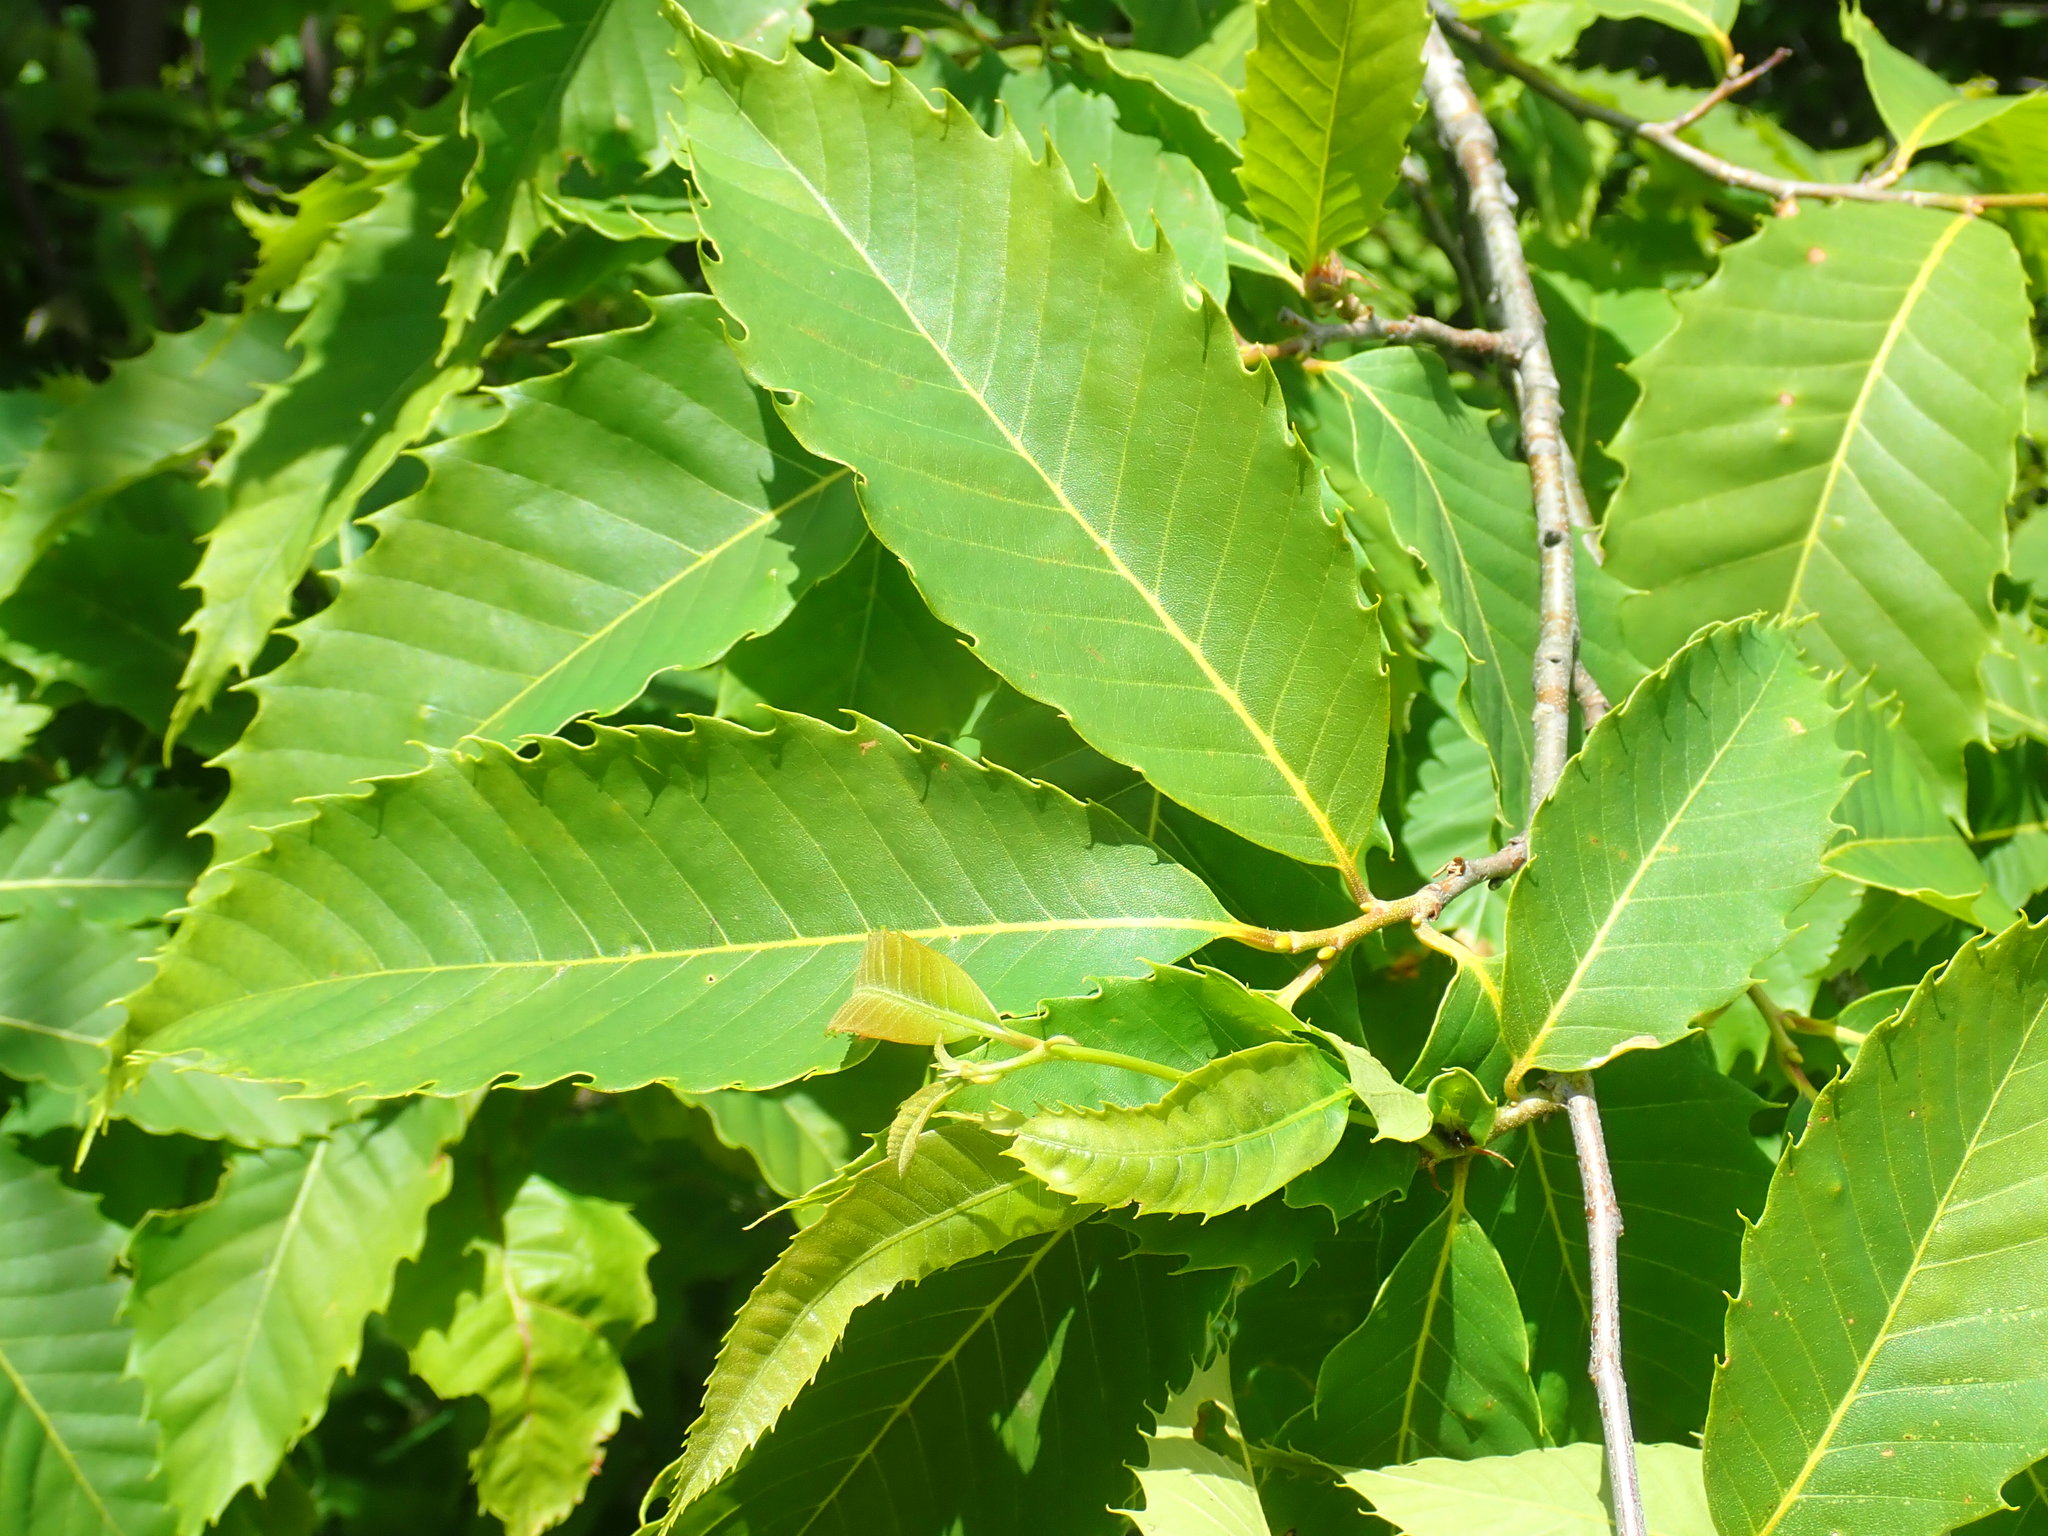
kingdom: Plantae
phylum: Tracheophyta
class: Magnoliopsida
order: Fagales
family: Fagaceae
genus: Castanea
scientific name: Castanea dentata
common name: American chestnut
